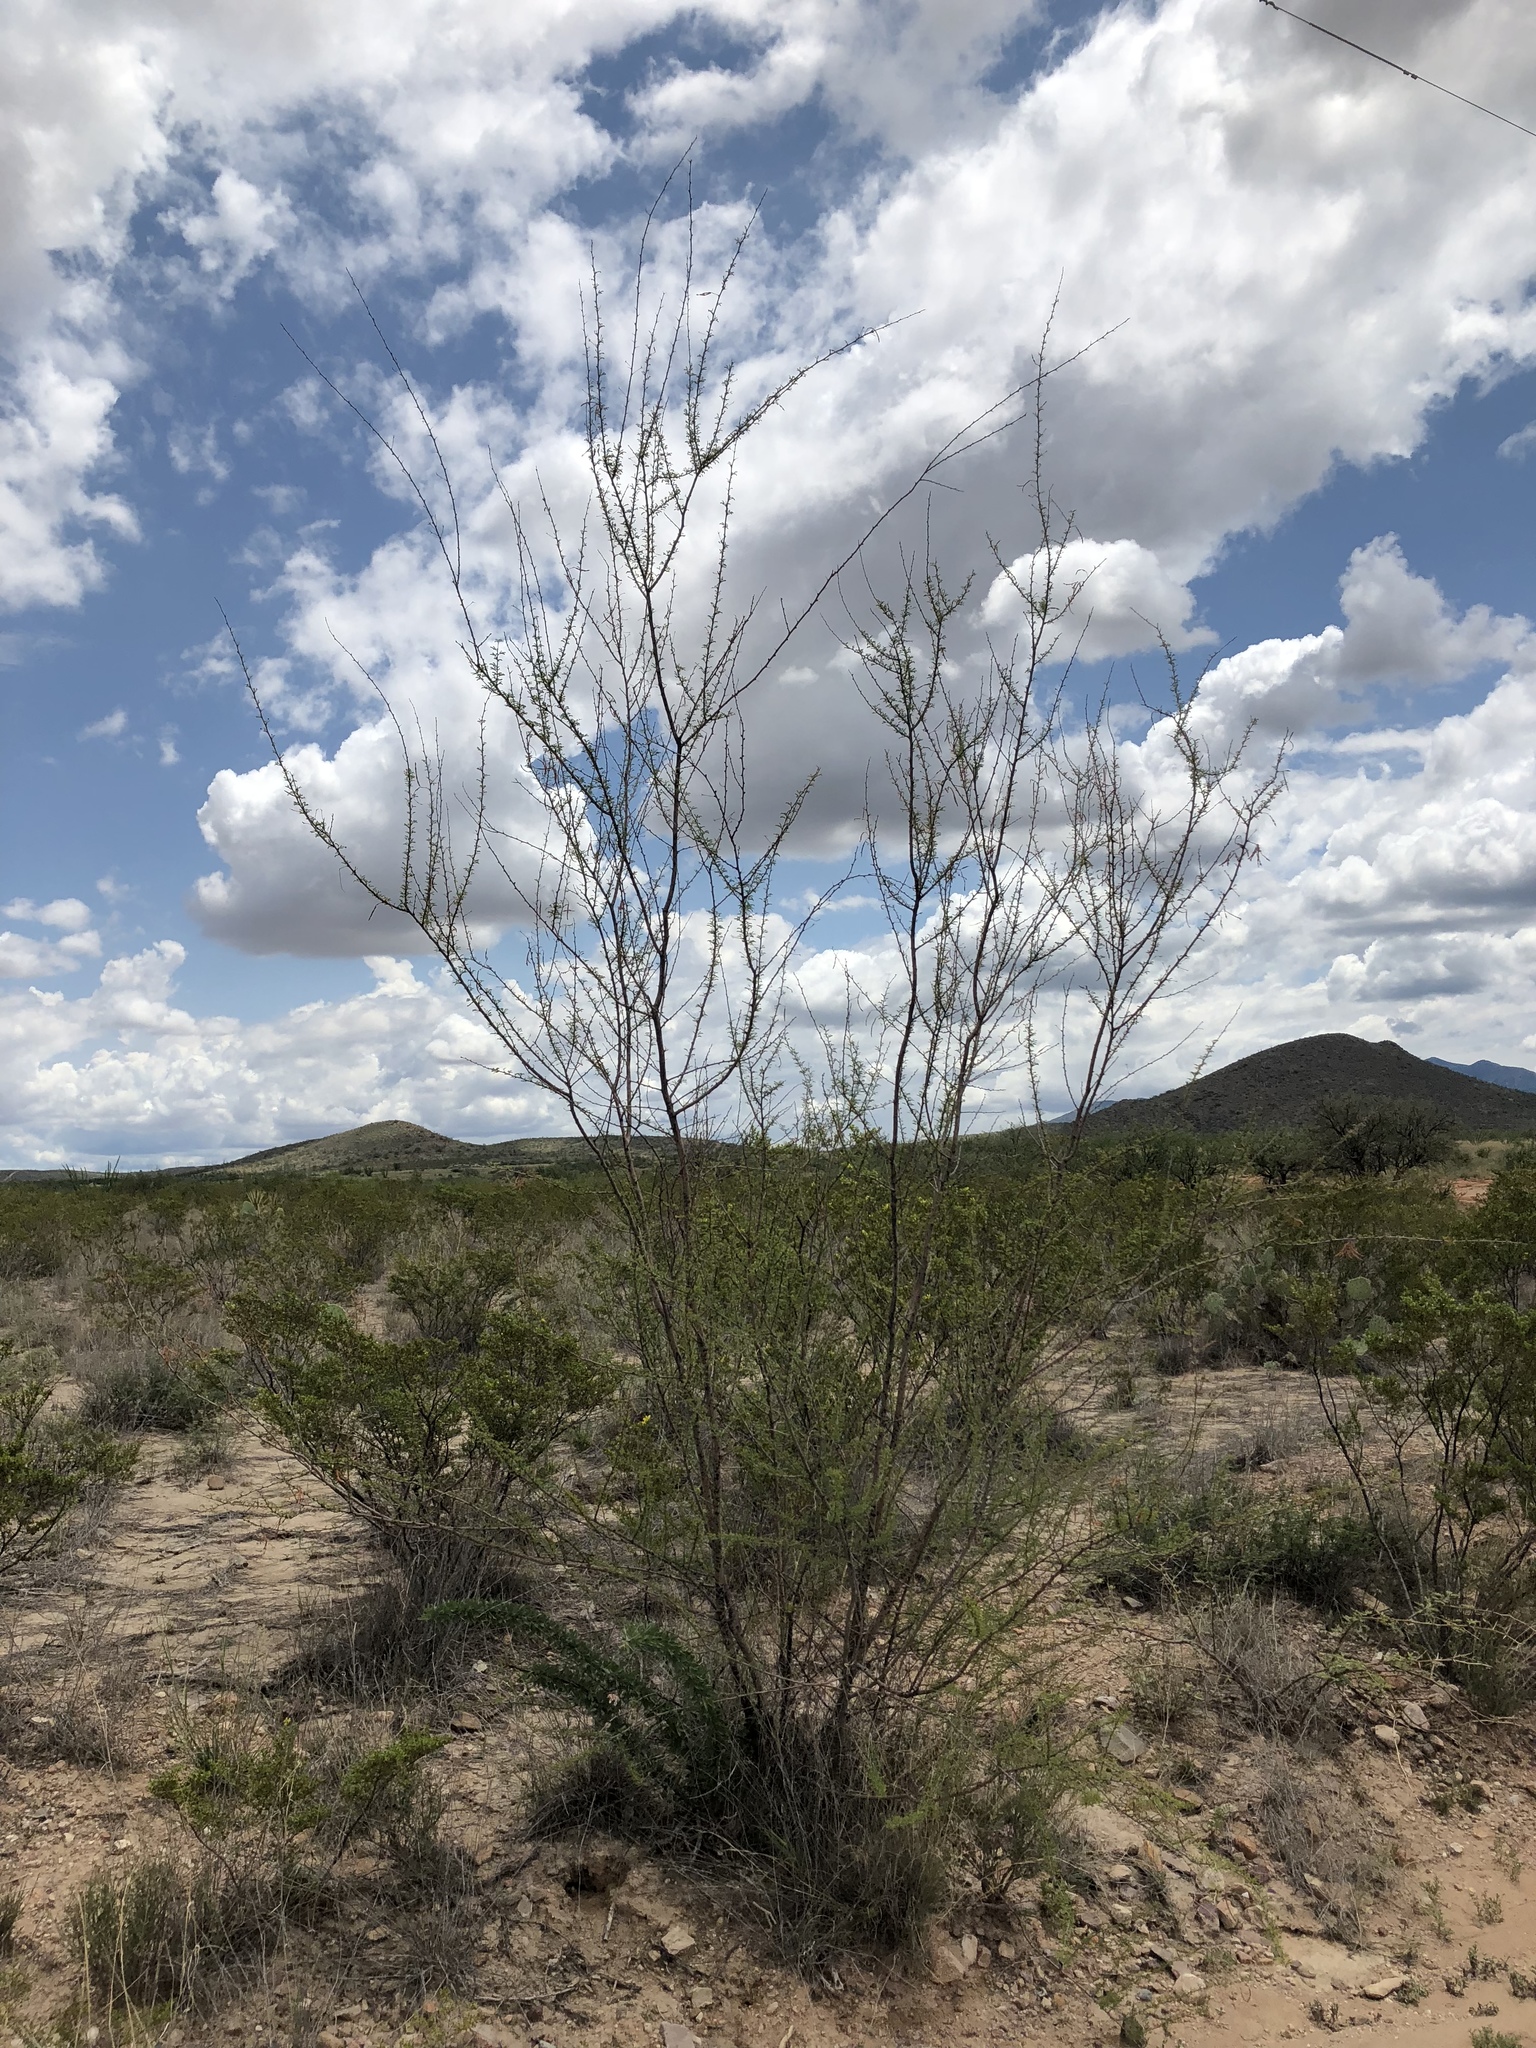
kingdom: Plantae
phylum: Tracheophyta
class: Magnoliopsida
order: Fabales
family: Fabaceae
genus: Vachellia
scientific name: Vachellia constricta
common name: Mescat acacia
